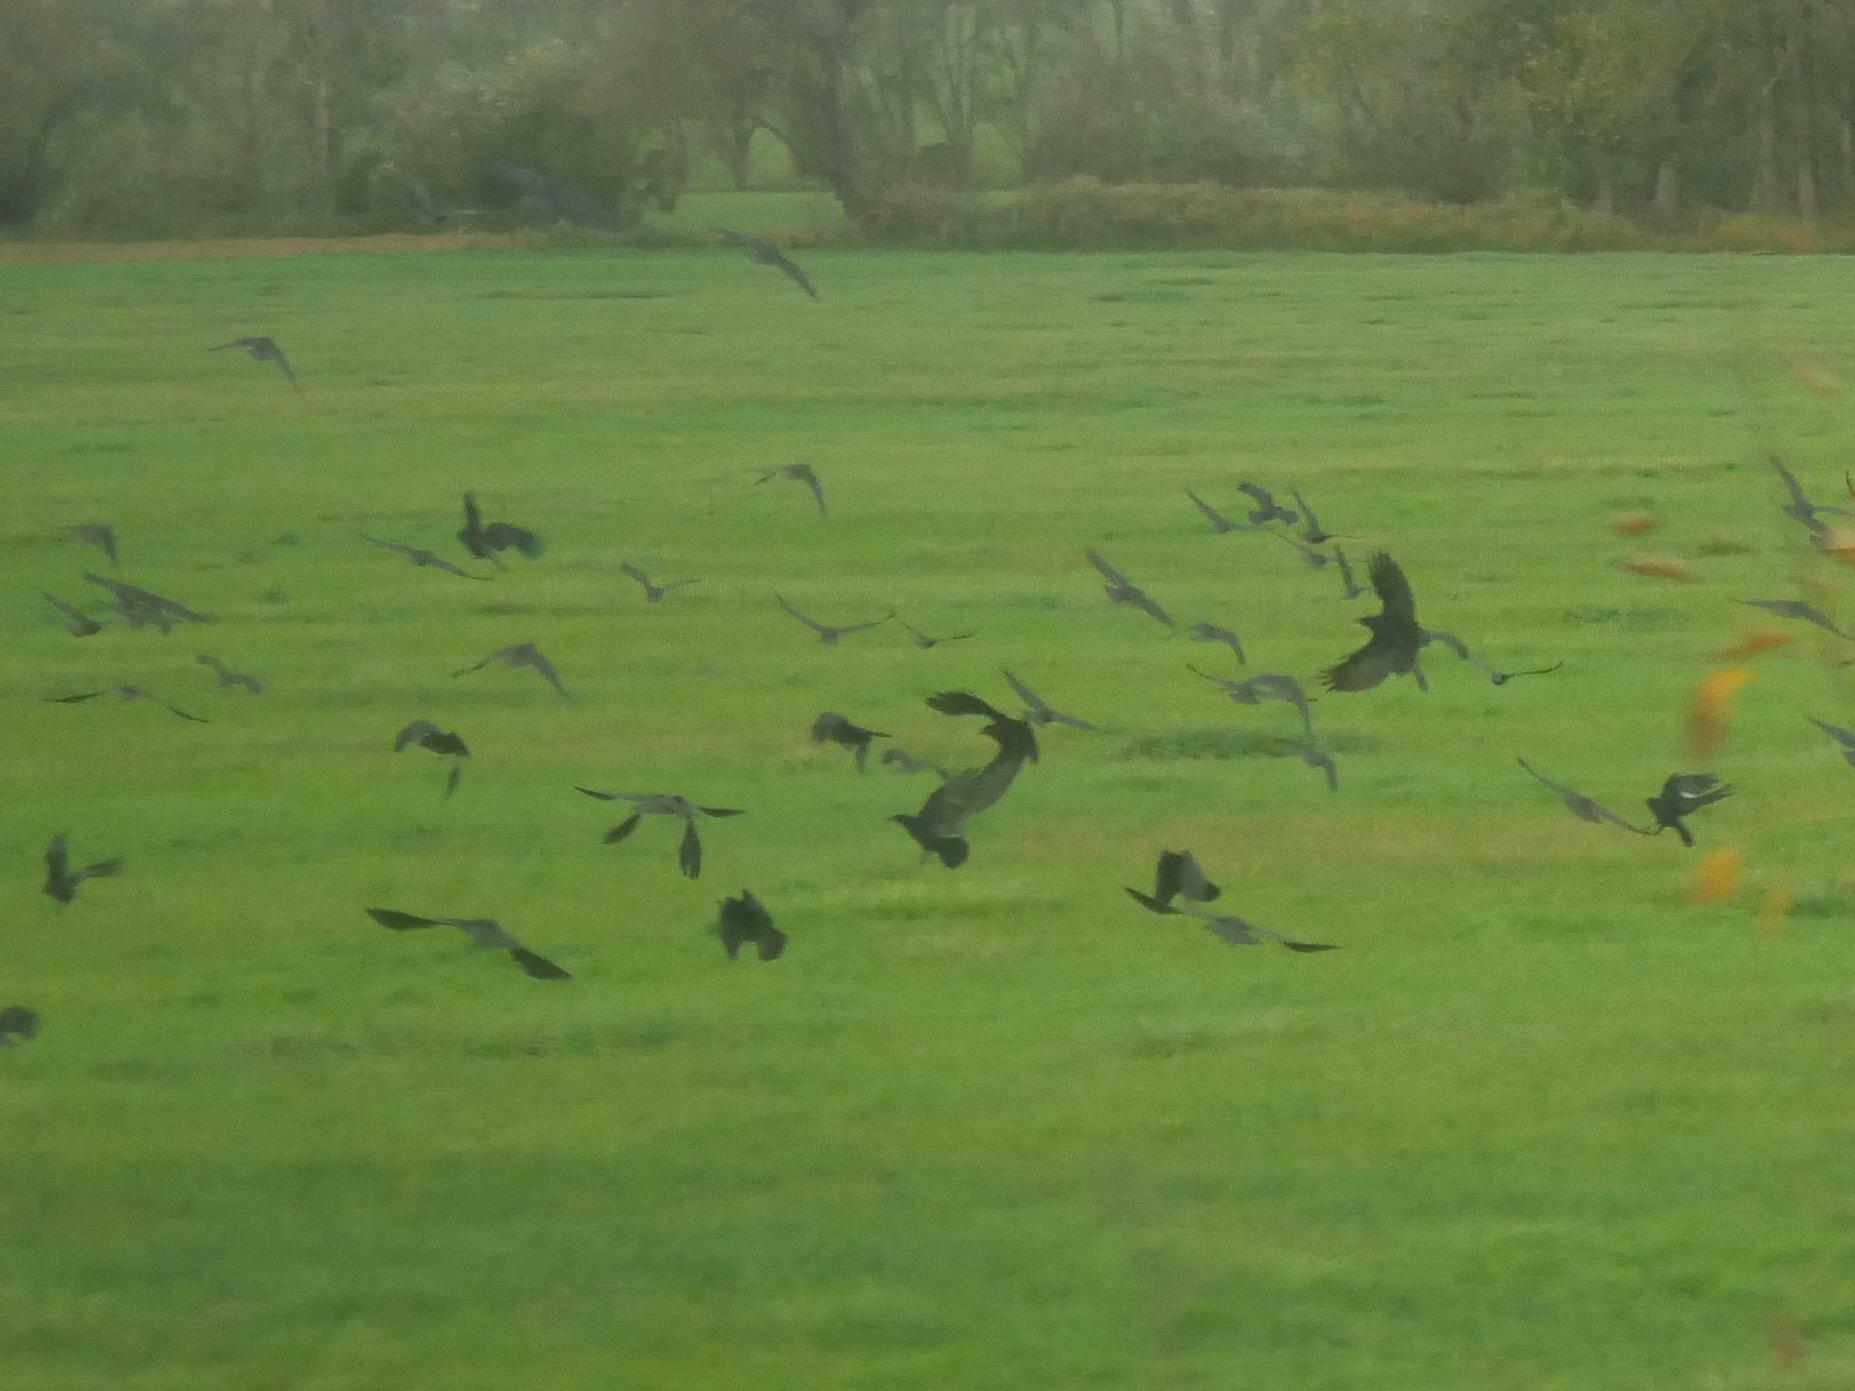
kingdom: Animalia
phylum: Chordata
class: Aves
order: Passeriformes
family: Corvidae
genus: Corvus
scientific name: Corvus corone
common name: Carrion crow
